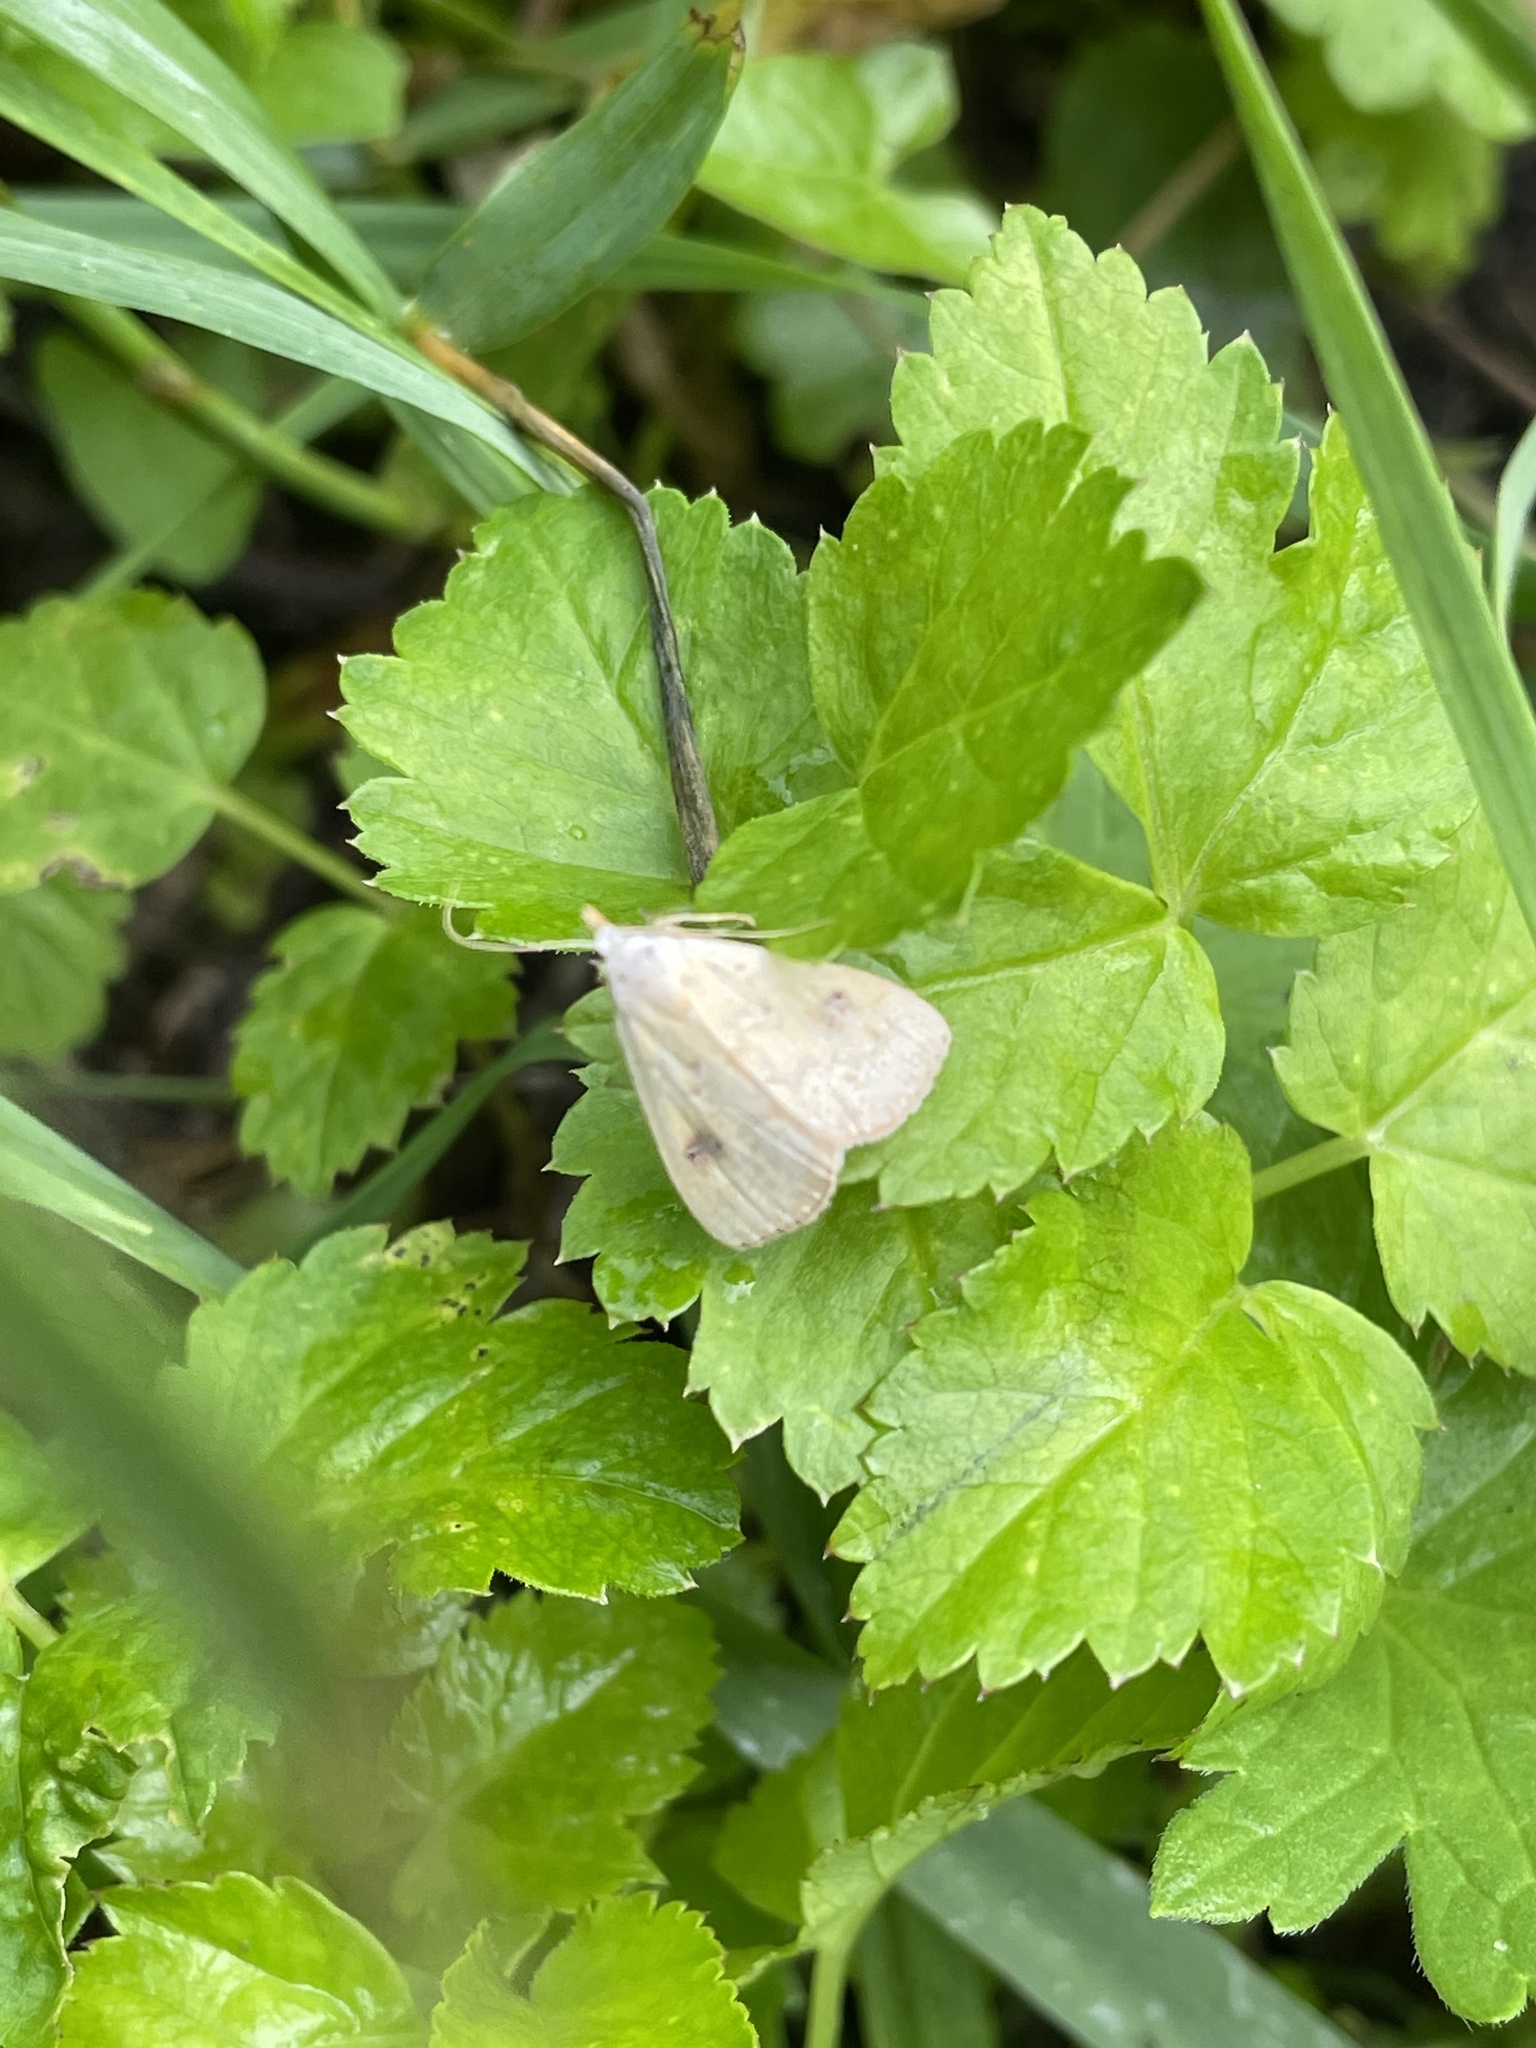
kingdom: Animalia
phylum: Arthropoda
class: Insecta
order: Lepidoptera
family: Erebidae
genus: Rivula
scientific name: Rivula sericealis
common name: Straw dot
